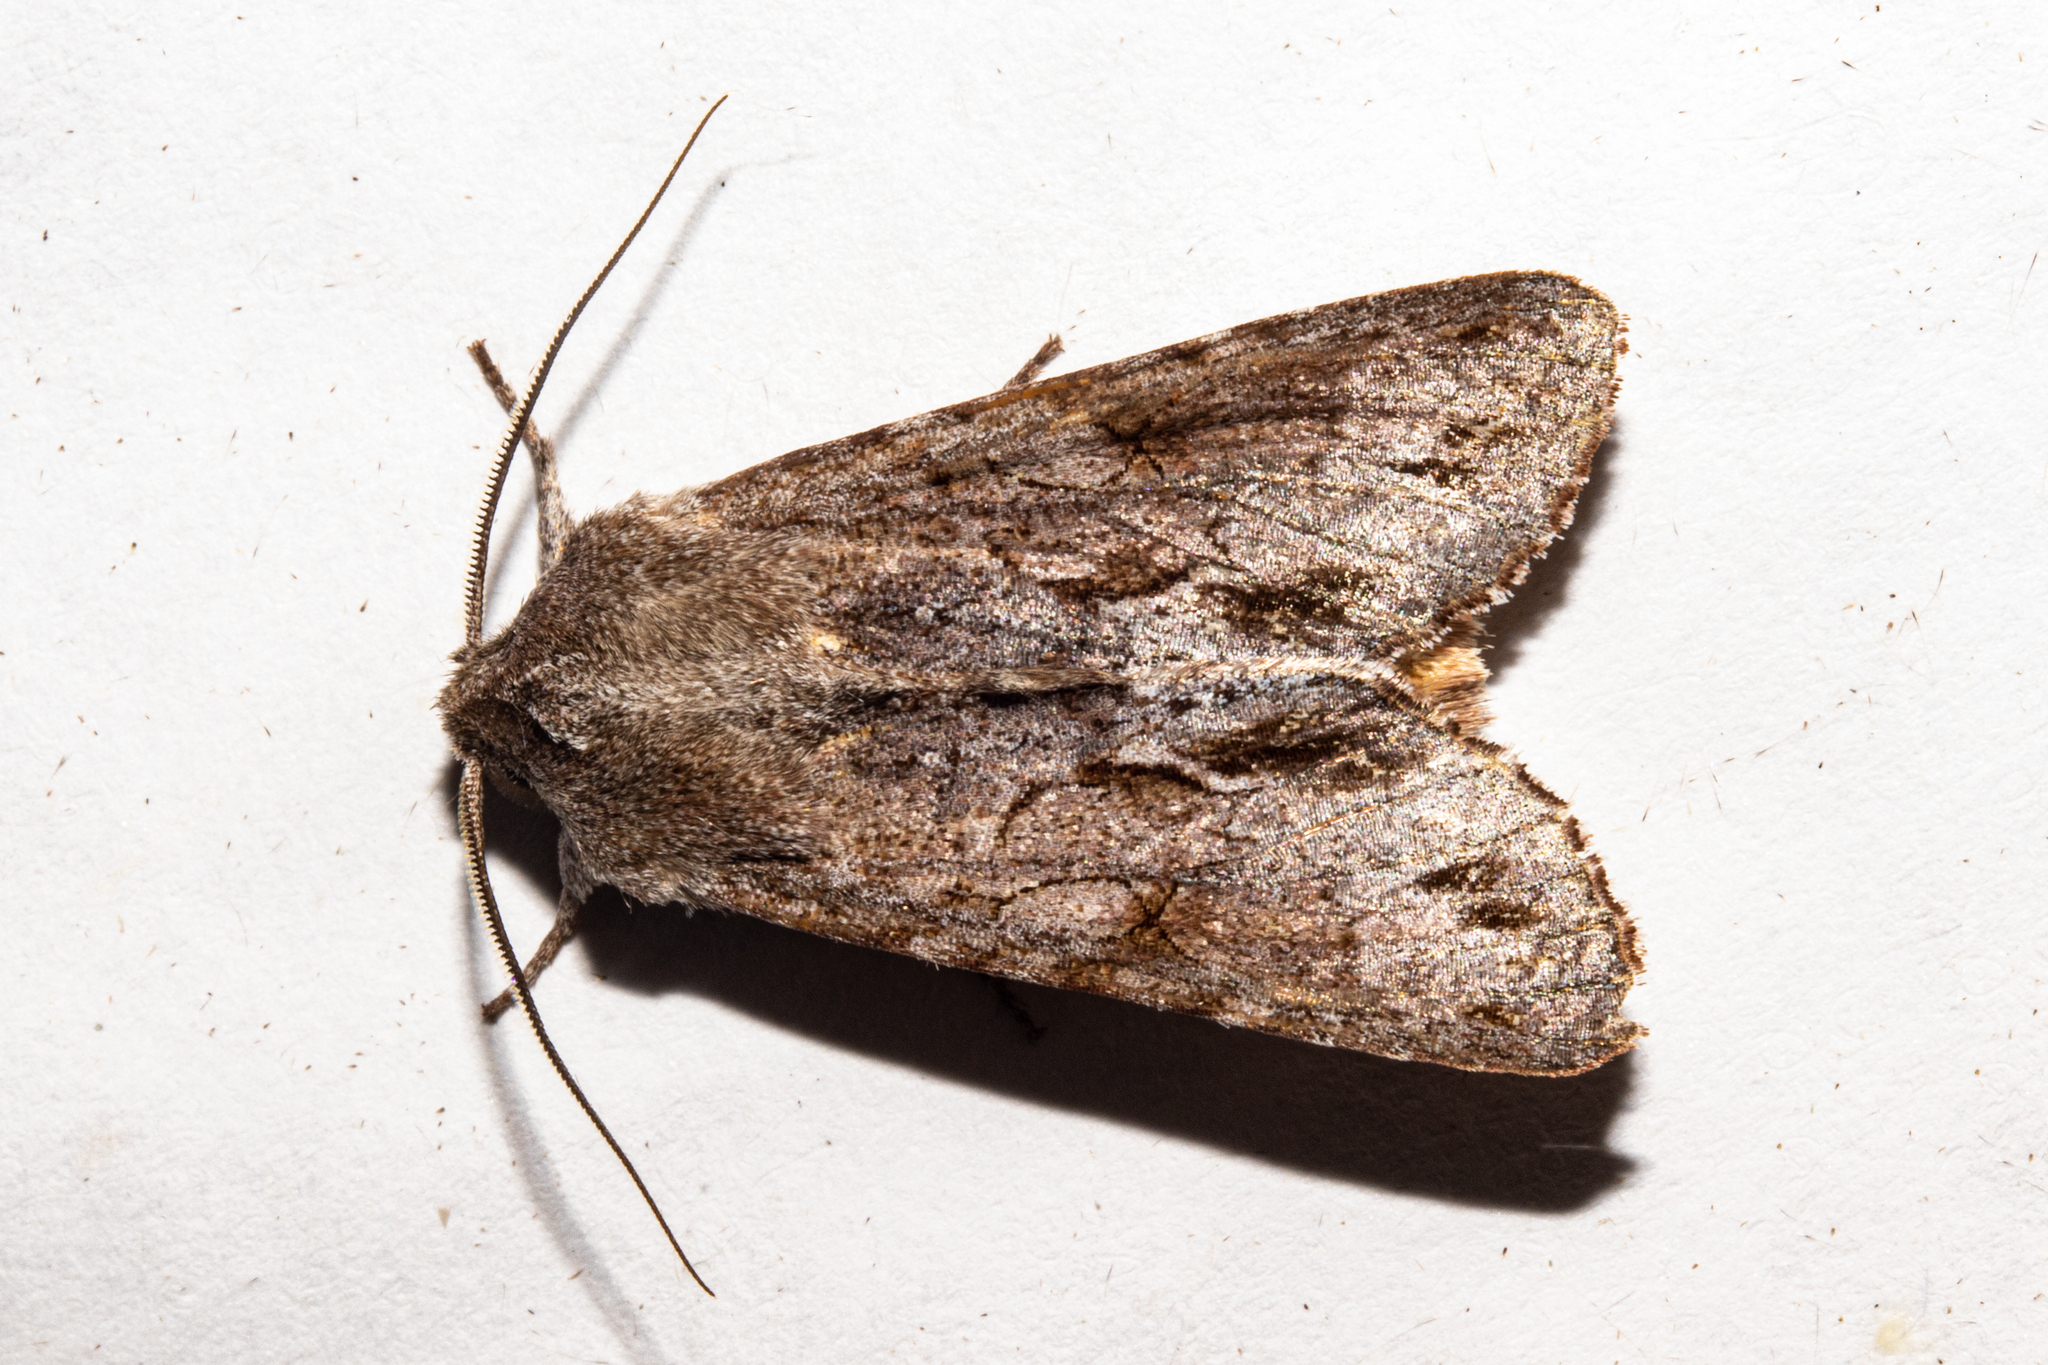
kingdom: Animalia
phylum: Arthropoda
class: Insecta
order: Lepidoptera
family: Noctuidae
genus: Ichneutica
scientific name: Ichneutica
